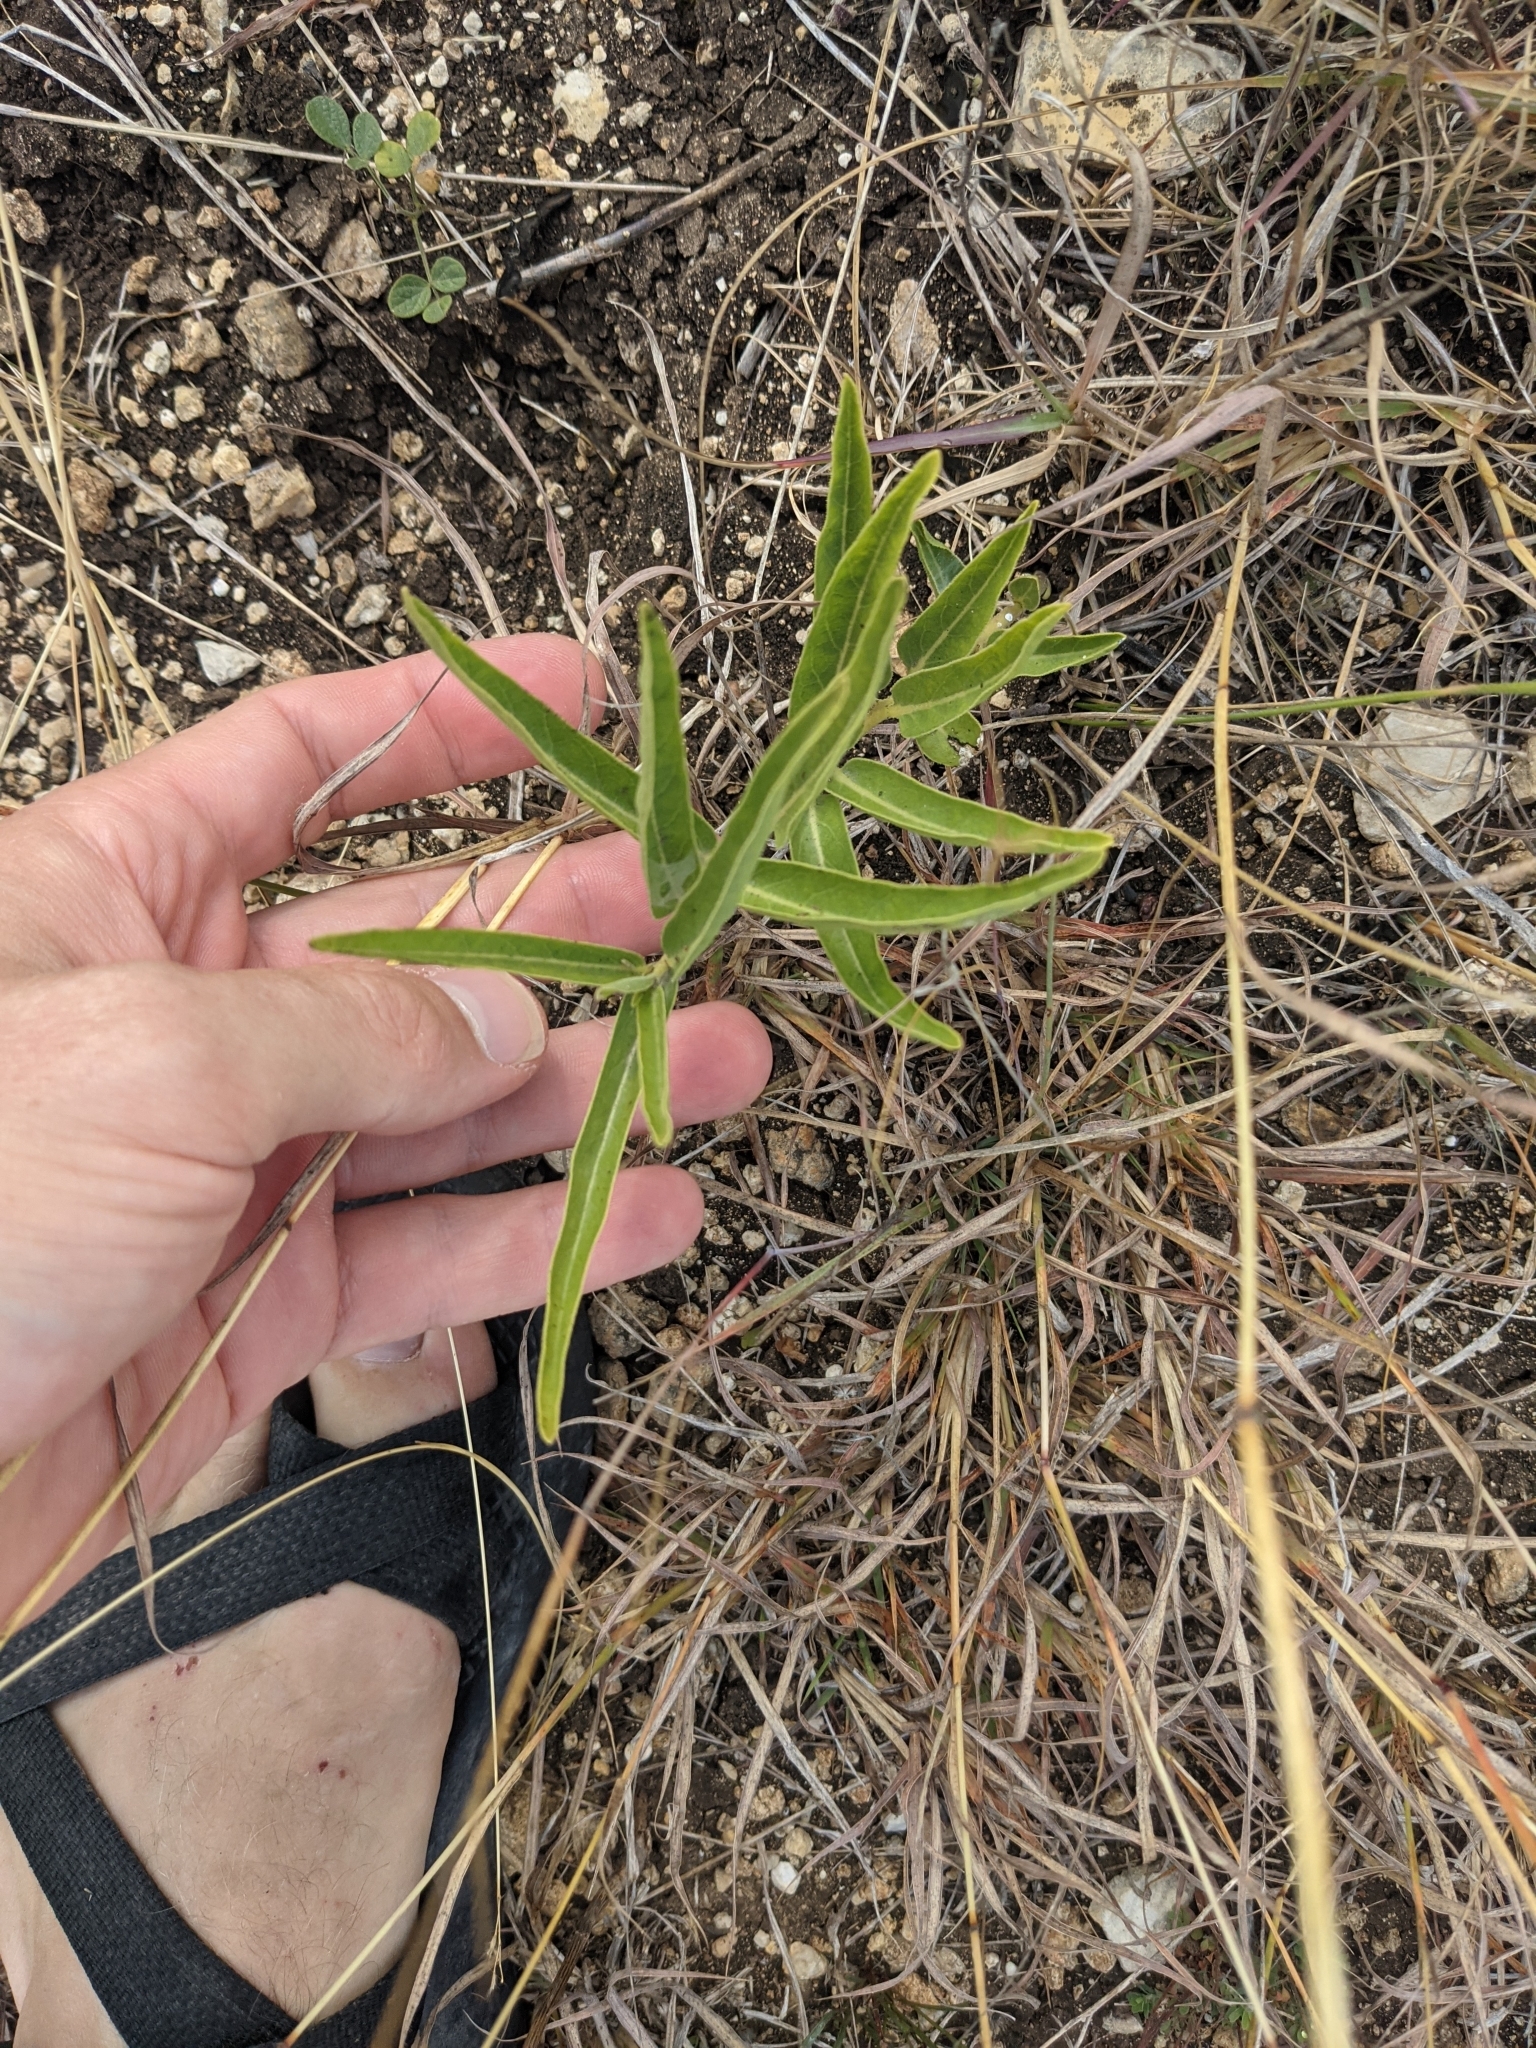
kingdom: Plantae
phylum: Tracheophyta
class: Magnoliopsida
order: Gentianales
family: Apocynaceae
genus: Asclepias
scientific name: Asclepias asperula
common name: Antelope horns
